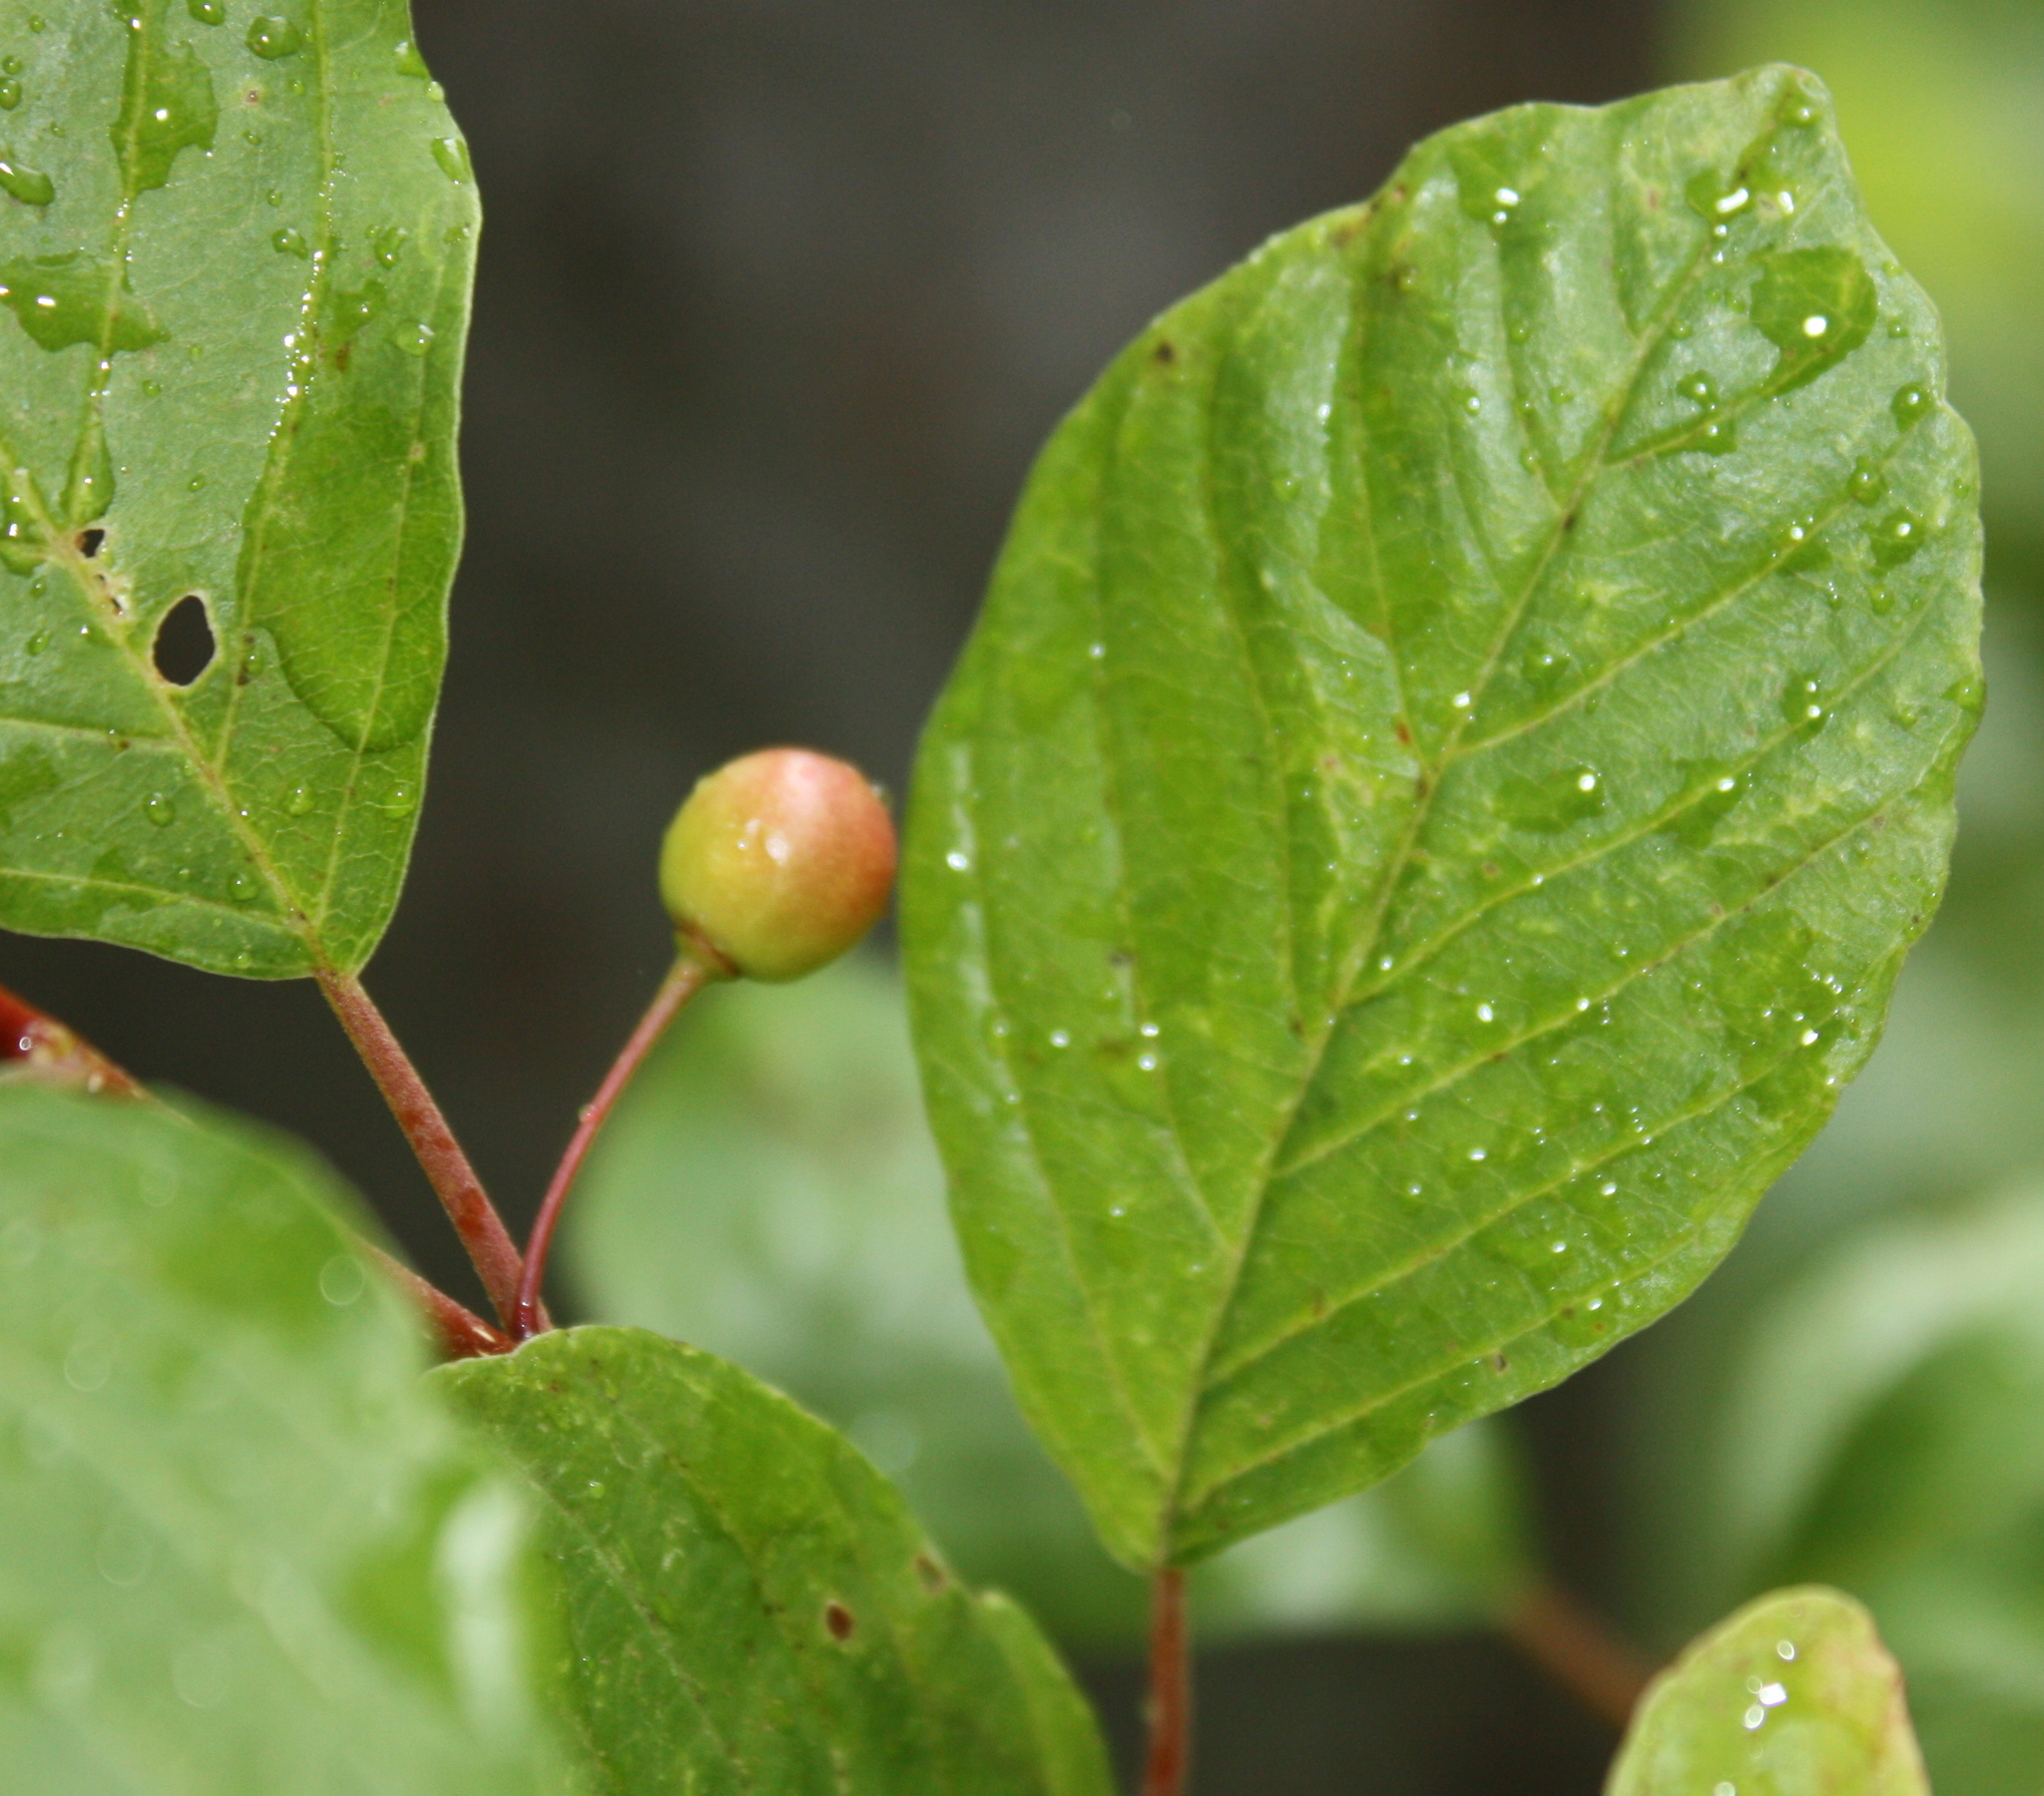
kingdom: Plantae
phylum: Tracheophyta
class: Magnoliopsida
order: Rosales
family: Rhamnaceae
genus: Frangula
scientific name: Frangula alnus
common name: Alder buckthorn
